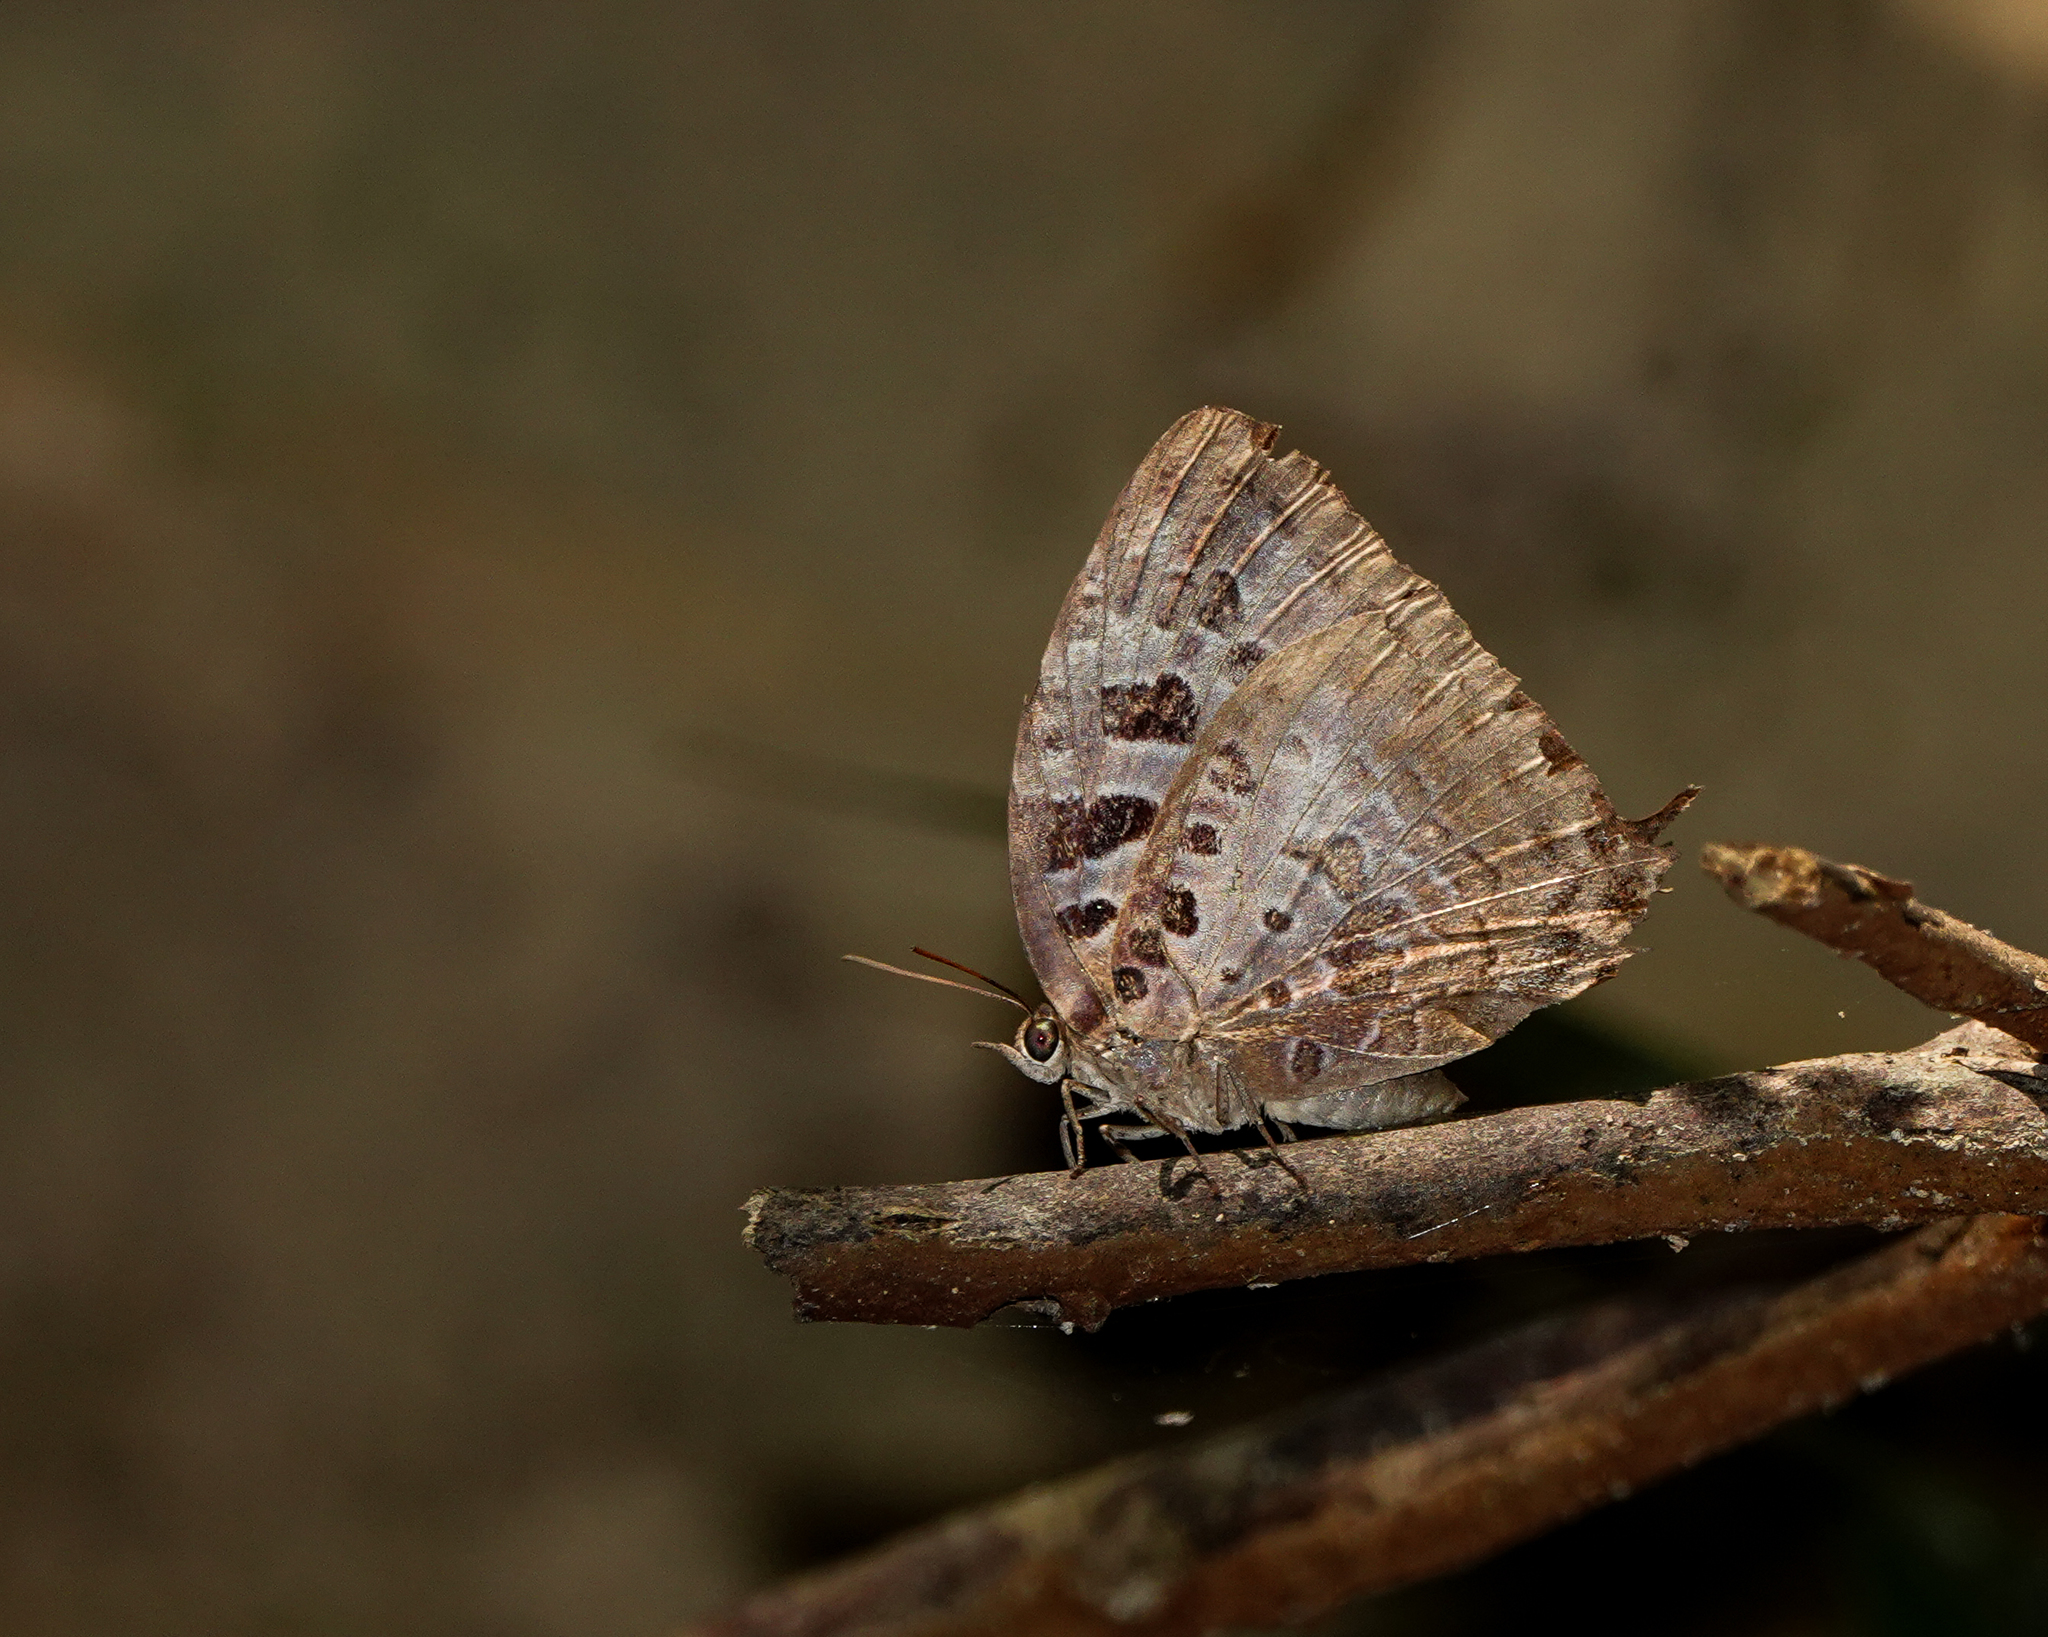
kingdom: Animalia
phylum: Arthropoda
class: Insecta
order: Lepidoptera
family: Lycaenidae
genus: Arhopala
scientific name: Arhopala anthelus
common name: Bushblue
